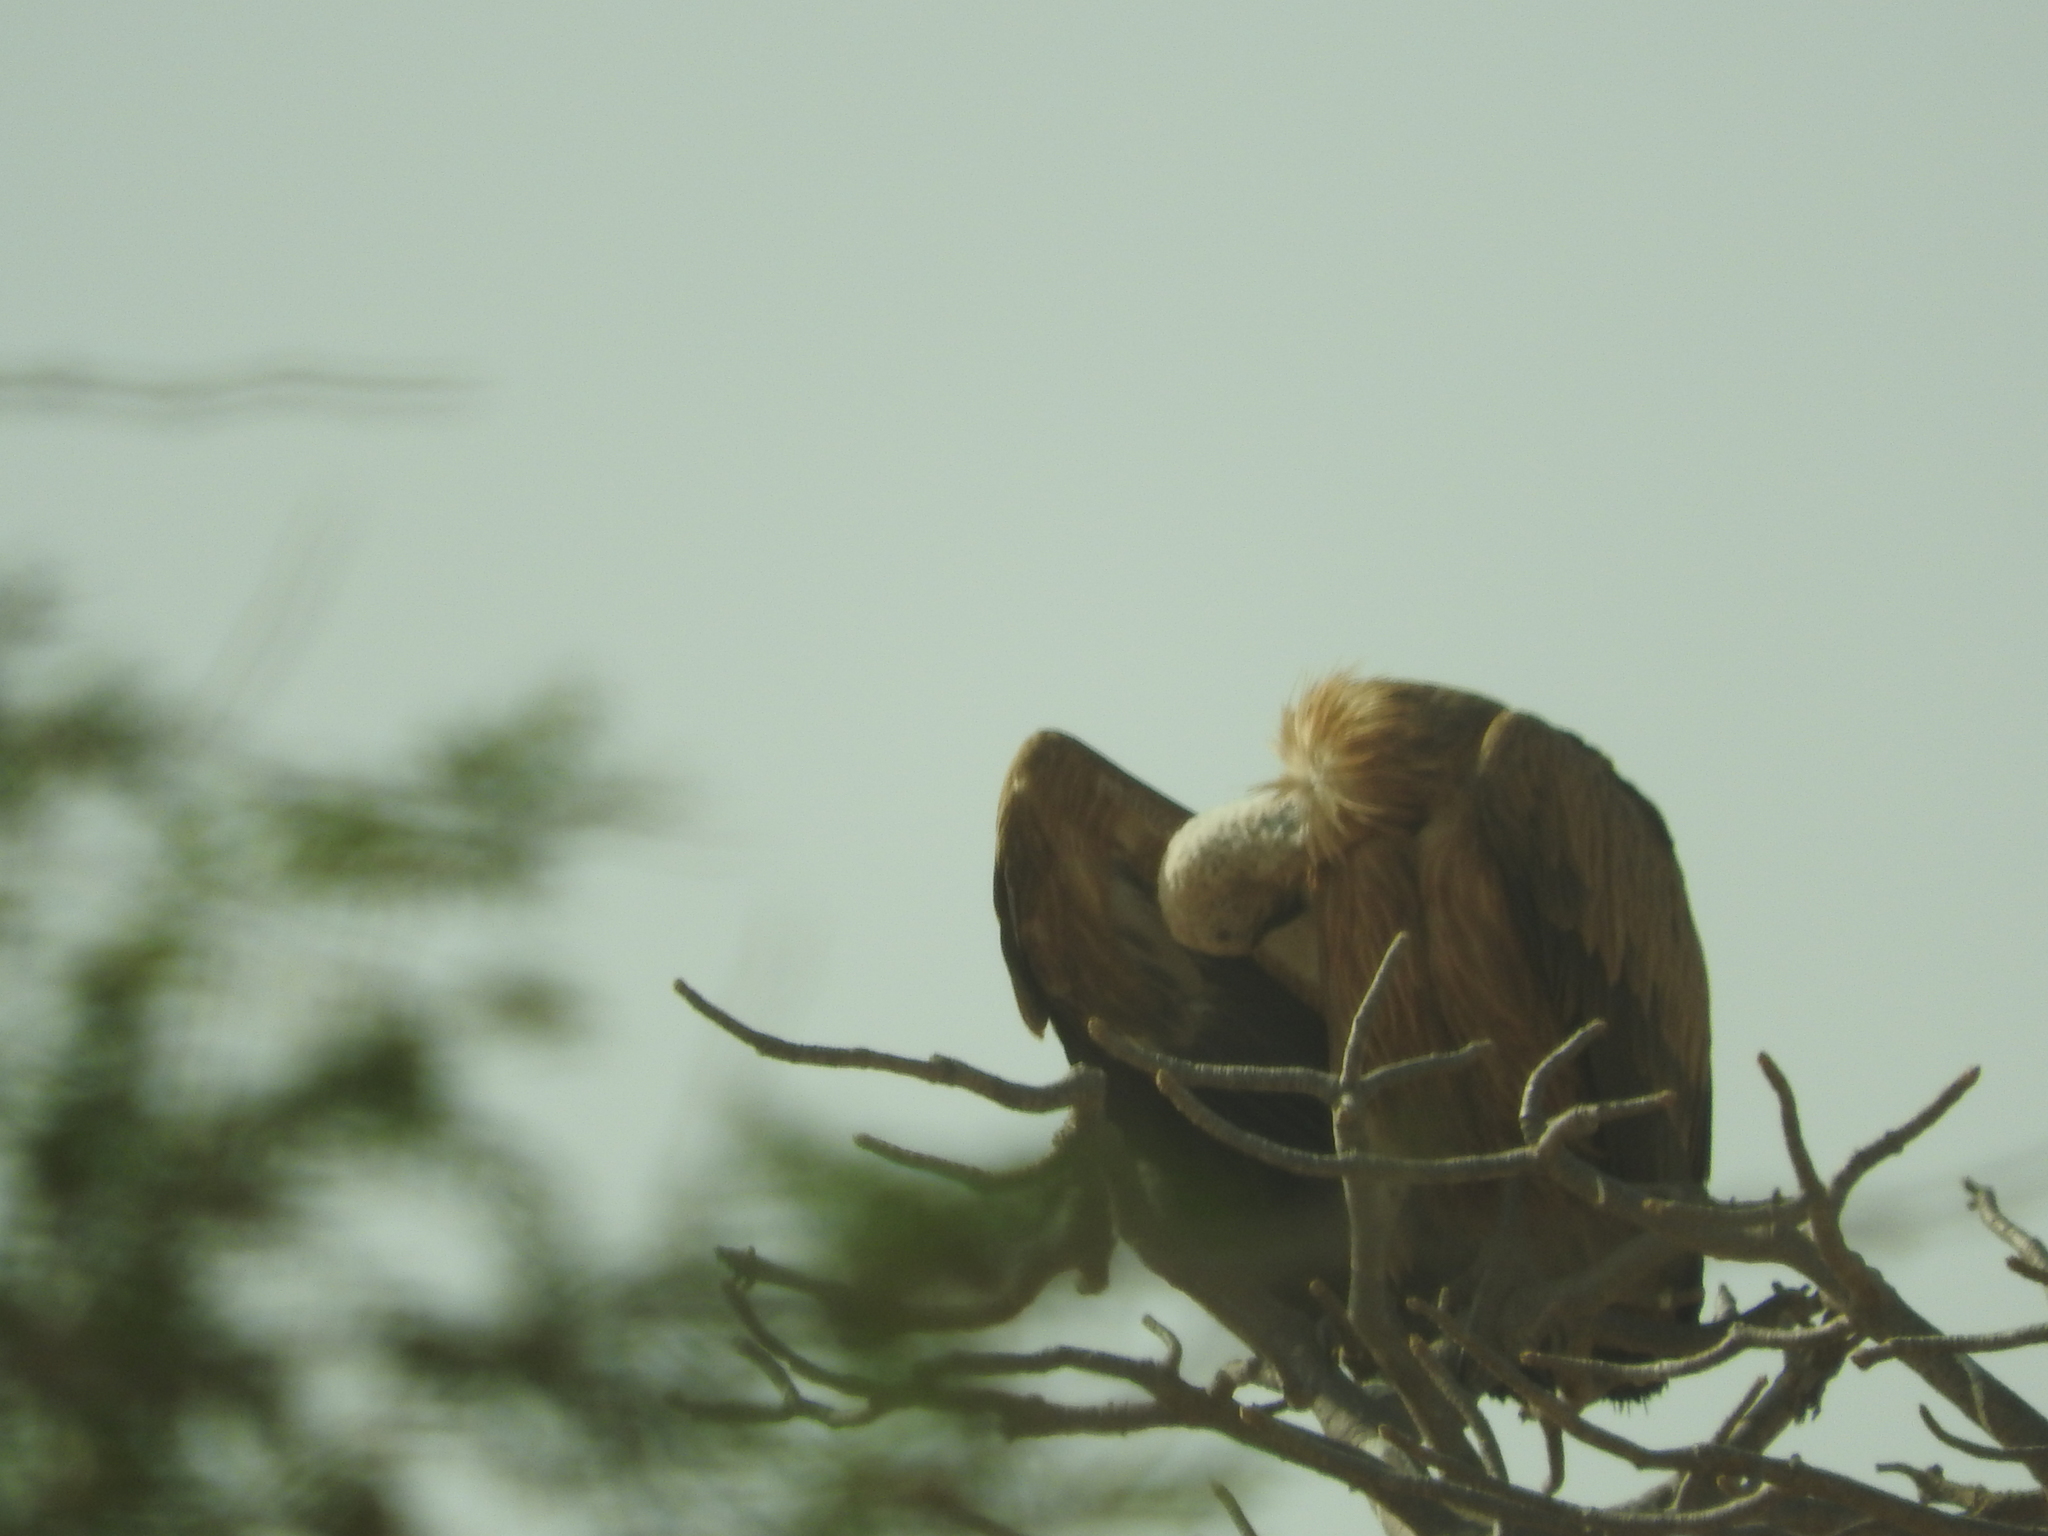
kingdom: Animalia
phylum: Chordata
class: Aves
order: Accipitriformes
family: Accipitridae
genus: Gyps
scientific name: Gyps fulvus
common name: Griffon vulture
